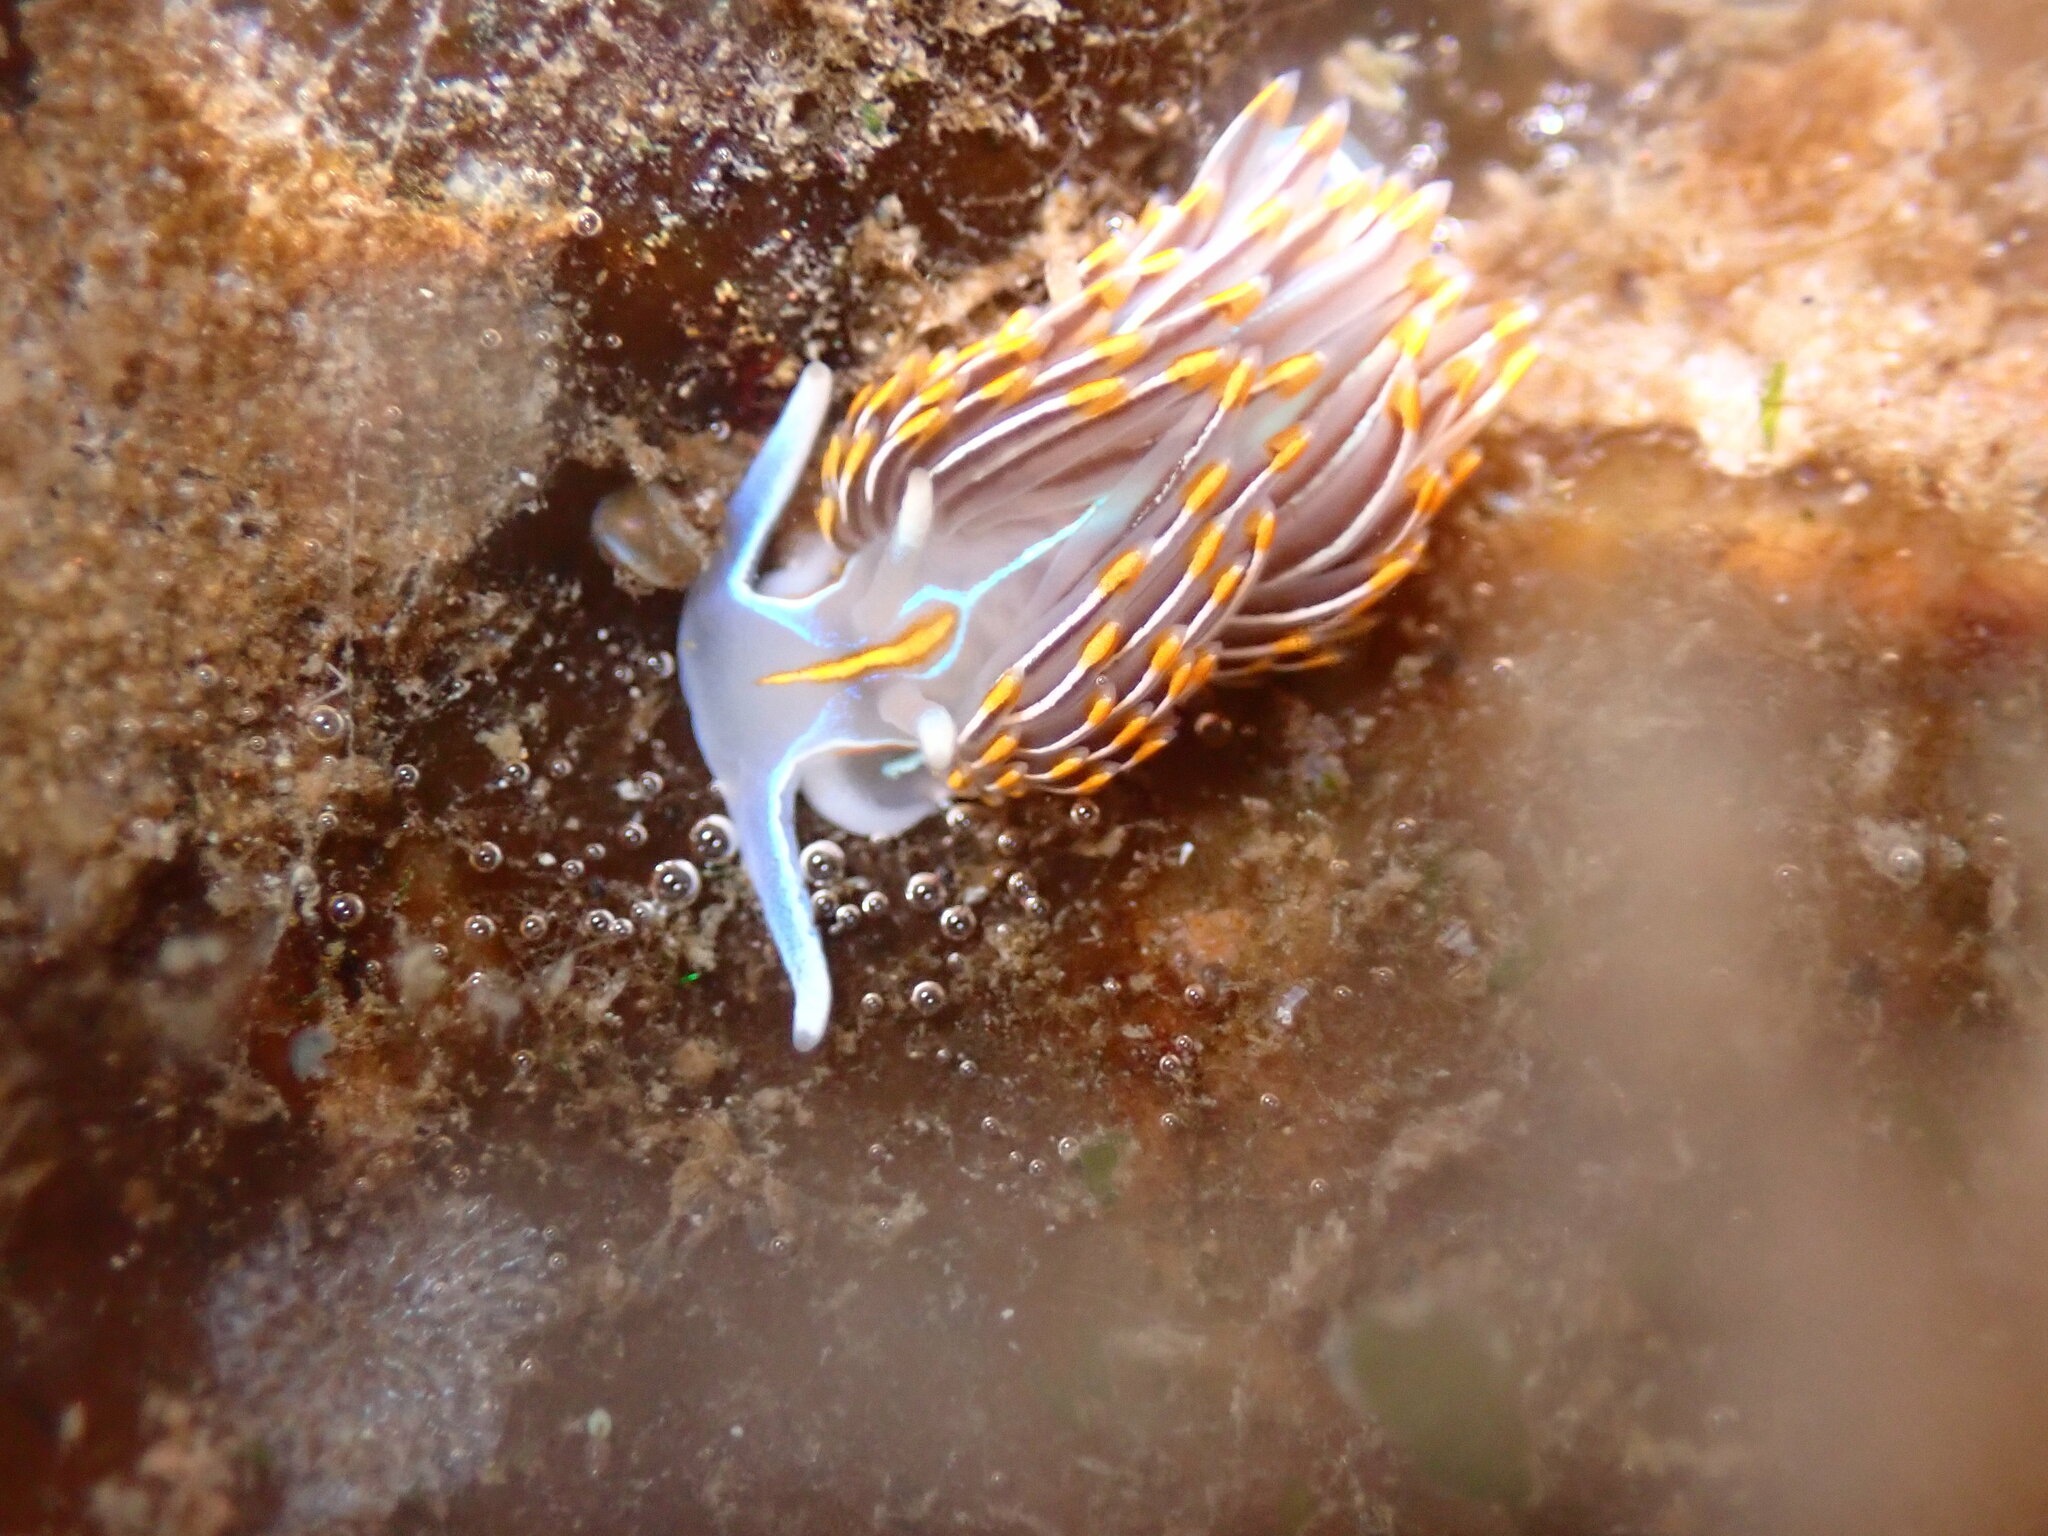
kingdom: Animalia
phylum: Mollusca
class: Gastropoda
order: Nudibranchia
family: Myrrhinidae
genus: Hermissenda
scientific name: Hermissenda crassicornis
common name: Hermissenda
